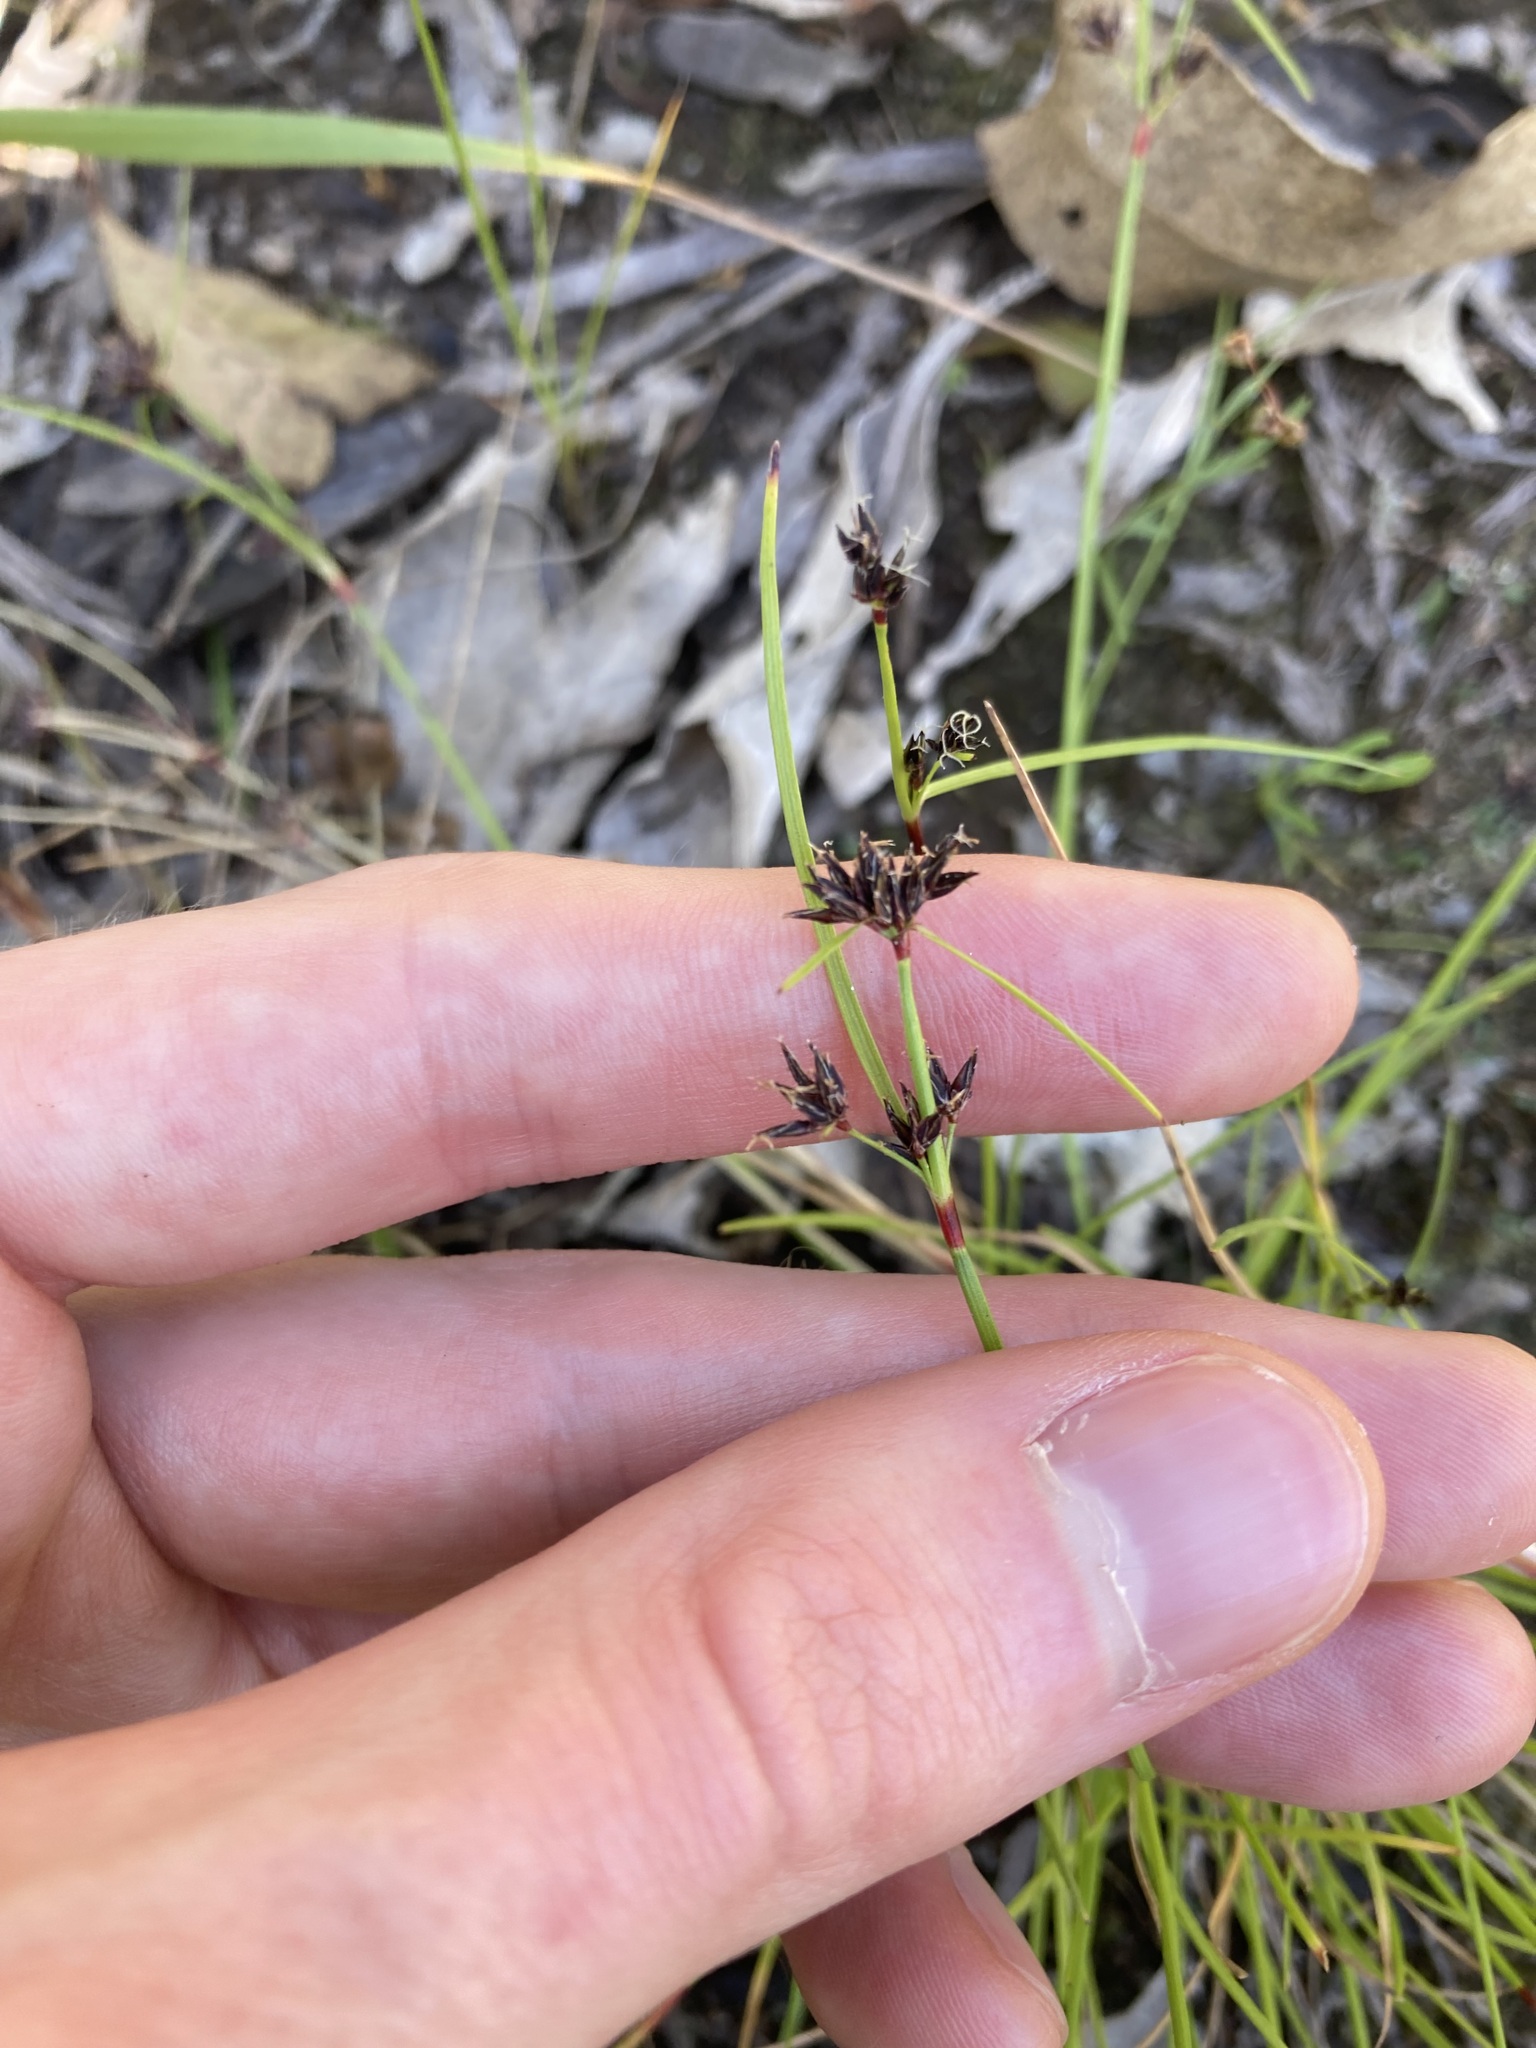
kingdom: Plantae
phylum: Tracheophyta
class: Liliopsida
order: Poales
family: Cyperaceae
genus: Schoenus
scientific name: Schoenus apogon
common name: Smooth bogrush
